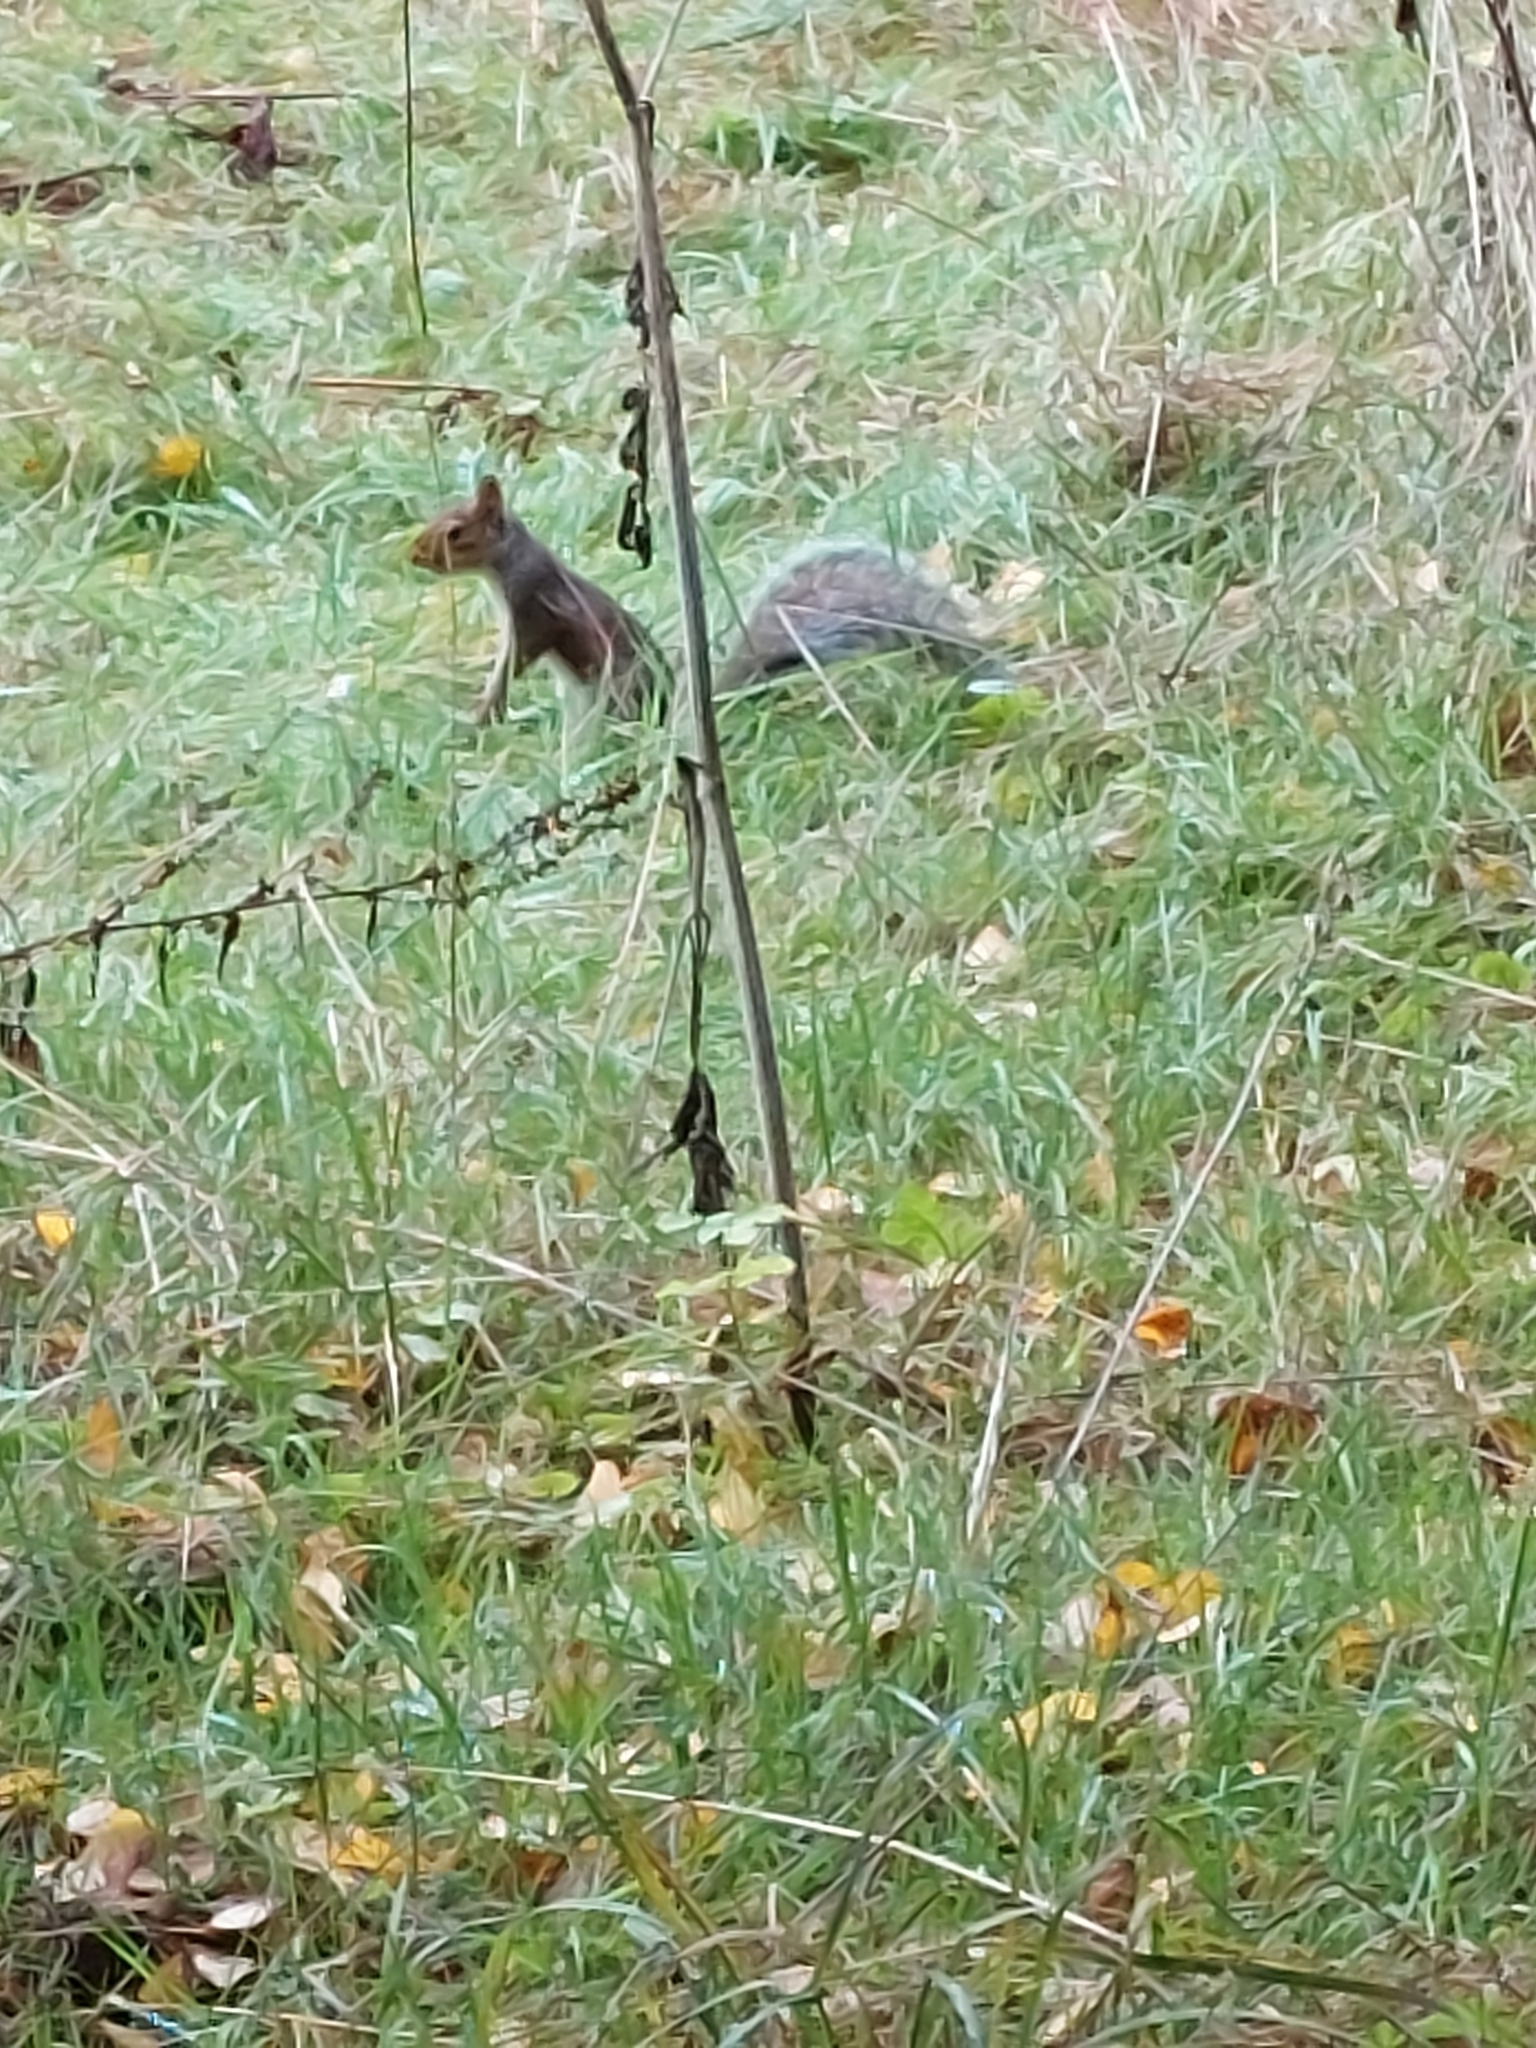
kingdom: Animalia
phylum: Chordata
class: Mammalia
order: Rodentia
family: Sciuridae
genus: Sciurus
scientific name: Sciurus carolinensis
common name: Eastern gray squirrel
